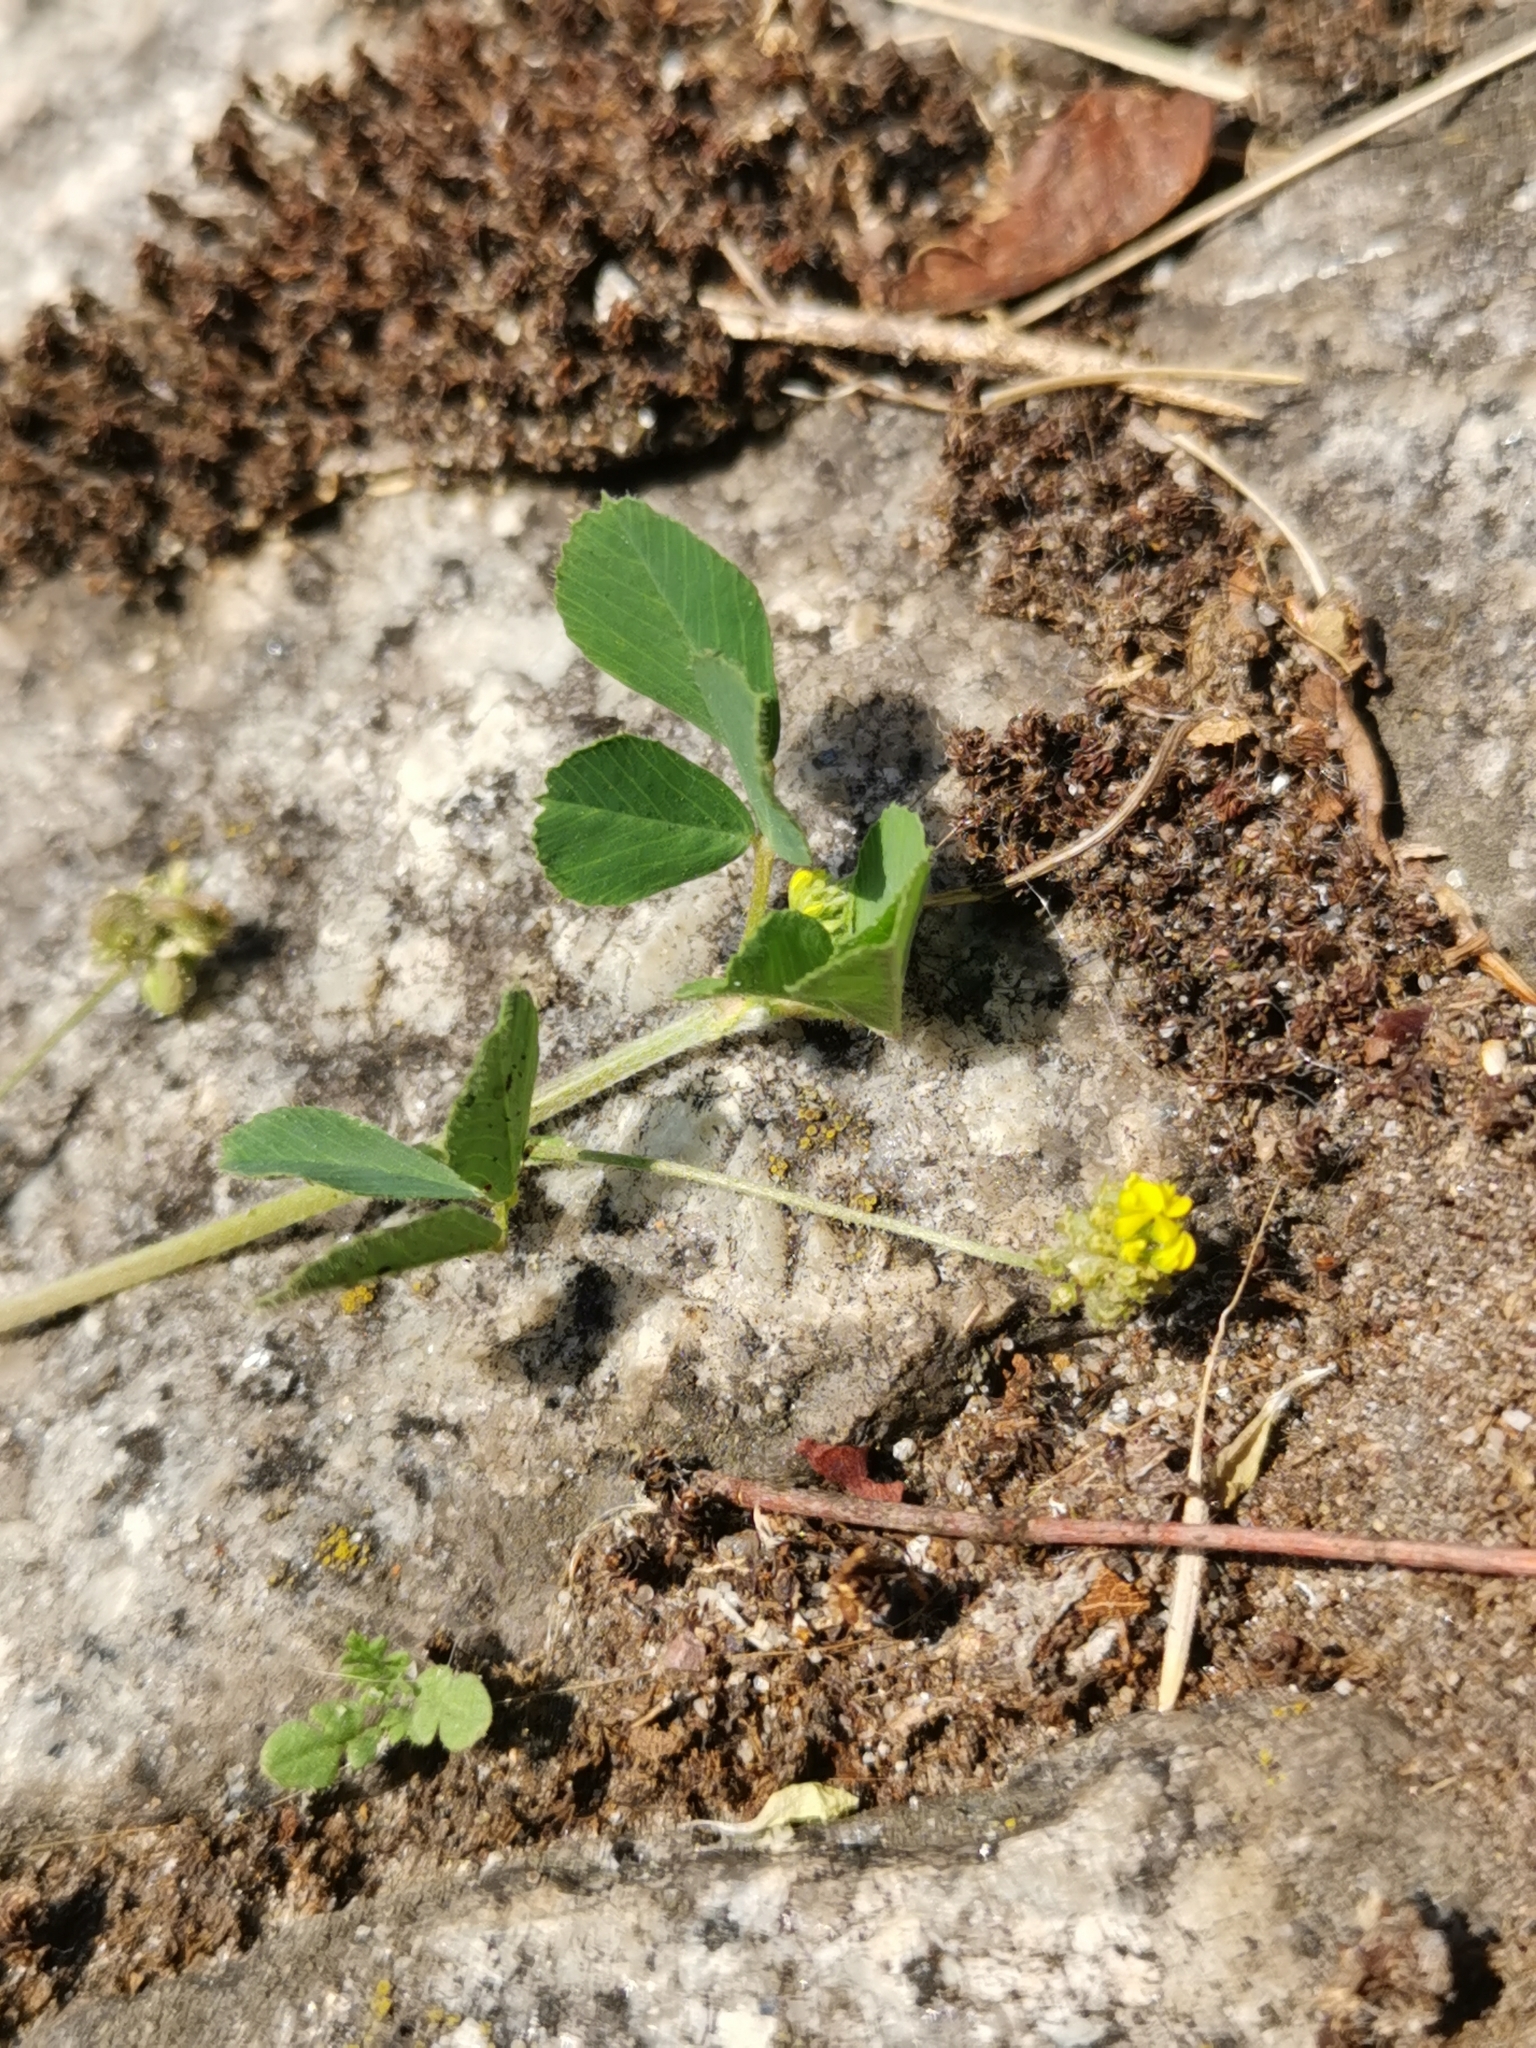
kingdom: Plantae
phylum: Tracheophyta
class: Magnoliopsida
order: Fabales
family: Fabaceae
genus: Medicago
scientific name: Medicago lupulina
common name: Black medick
